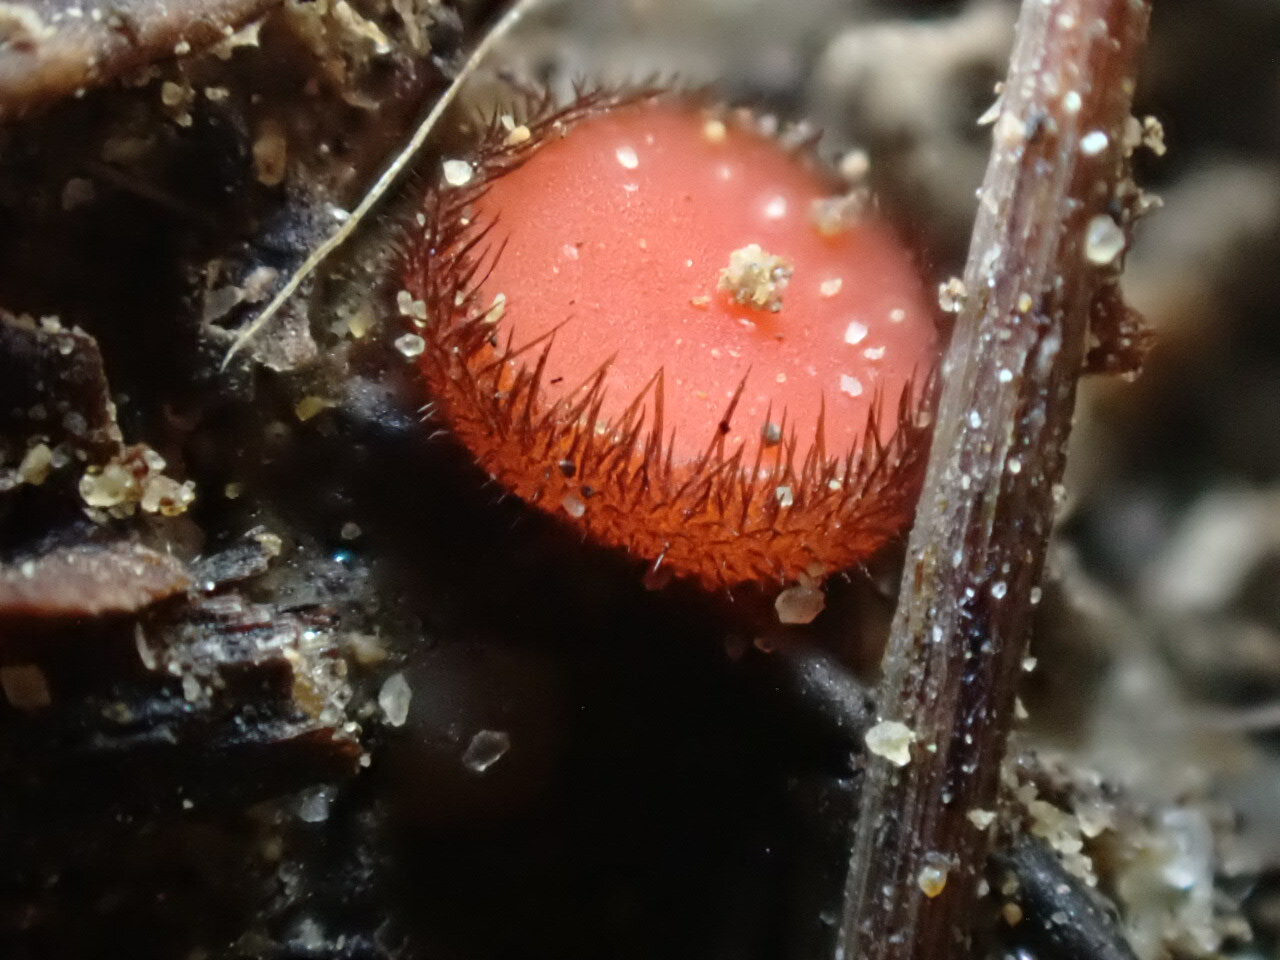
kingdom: Fungi
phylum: Ascomycota
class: Pezizomycetes
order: Pezizales
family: Pyronemataceae
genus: Scutellinia
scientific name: Scutellinia
